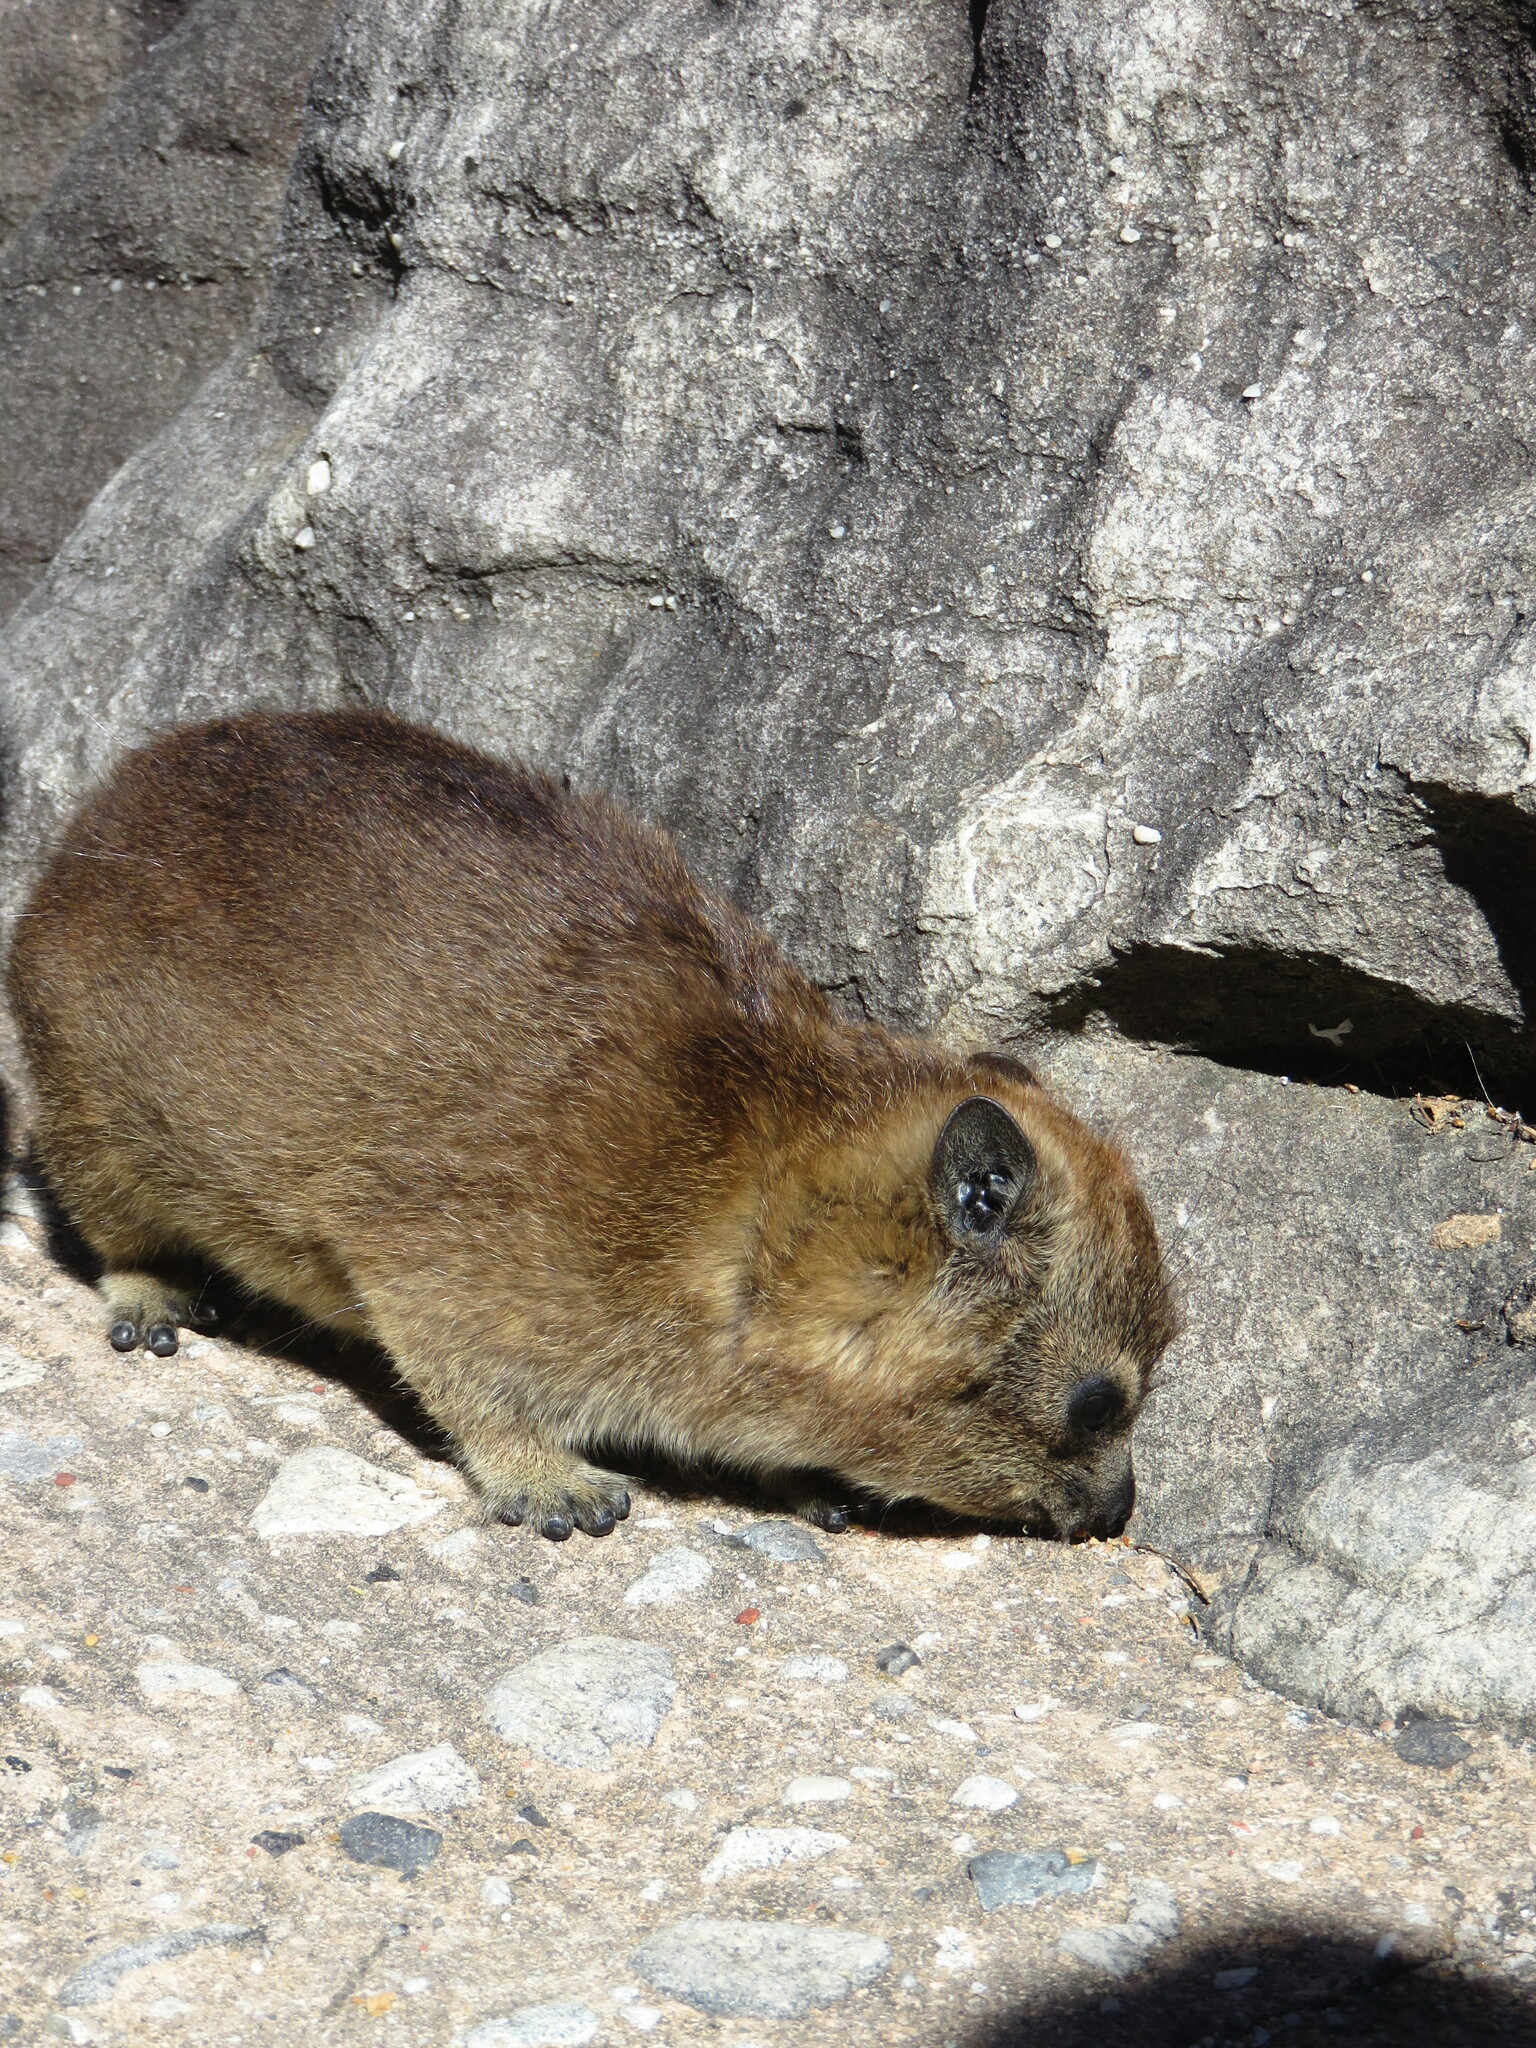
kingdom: Animalia
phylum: Chordata
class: Mammalia
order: Hyracoidea
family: Procaviidae
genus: Procavia
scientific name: Procavia capensis
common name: Rock hyrax
